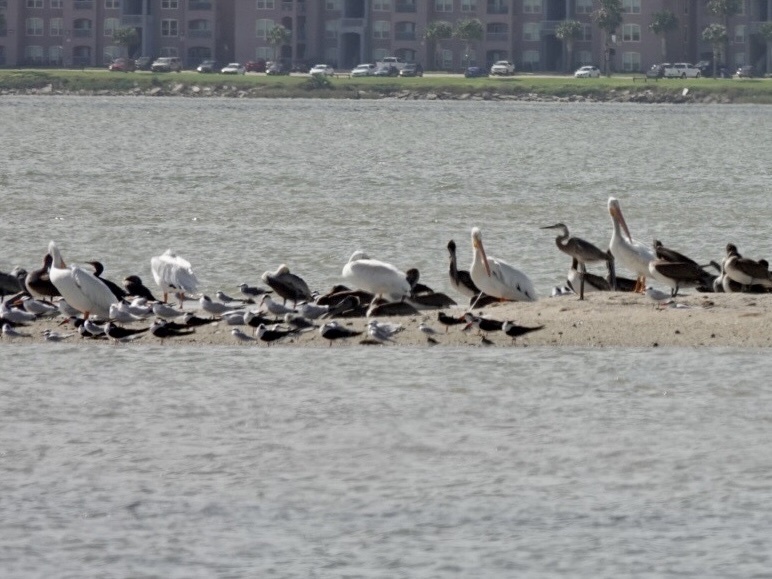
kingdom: Animalia
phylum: Chordata
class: Aves
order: Pelecaniformes
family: Pelecanidae
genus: Pelecanus
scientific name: Pelecanus erythrorhynchos
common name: American white pelican
